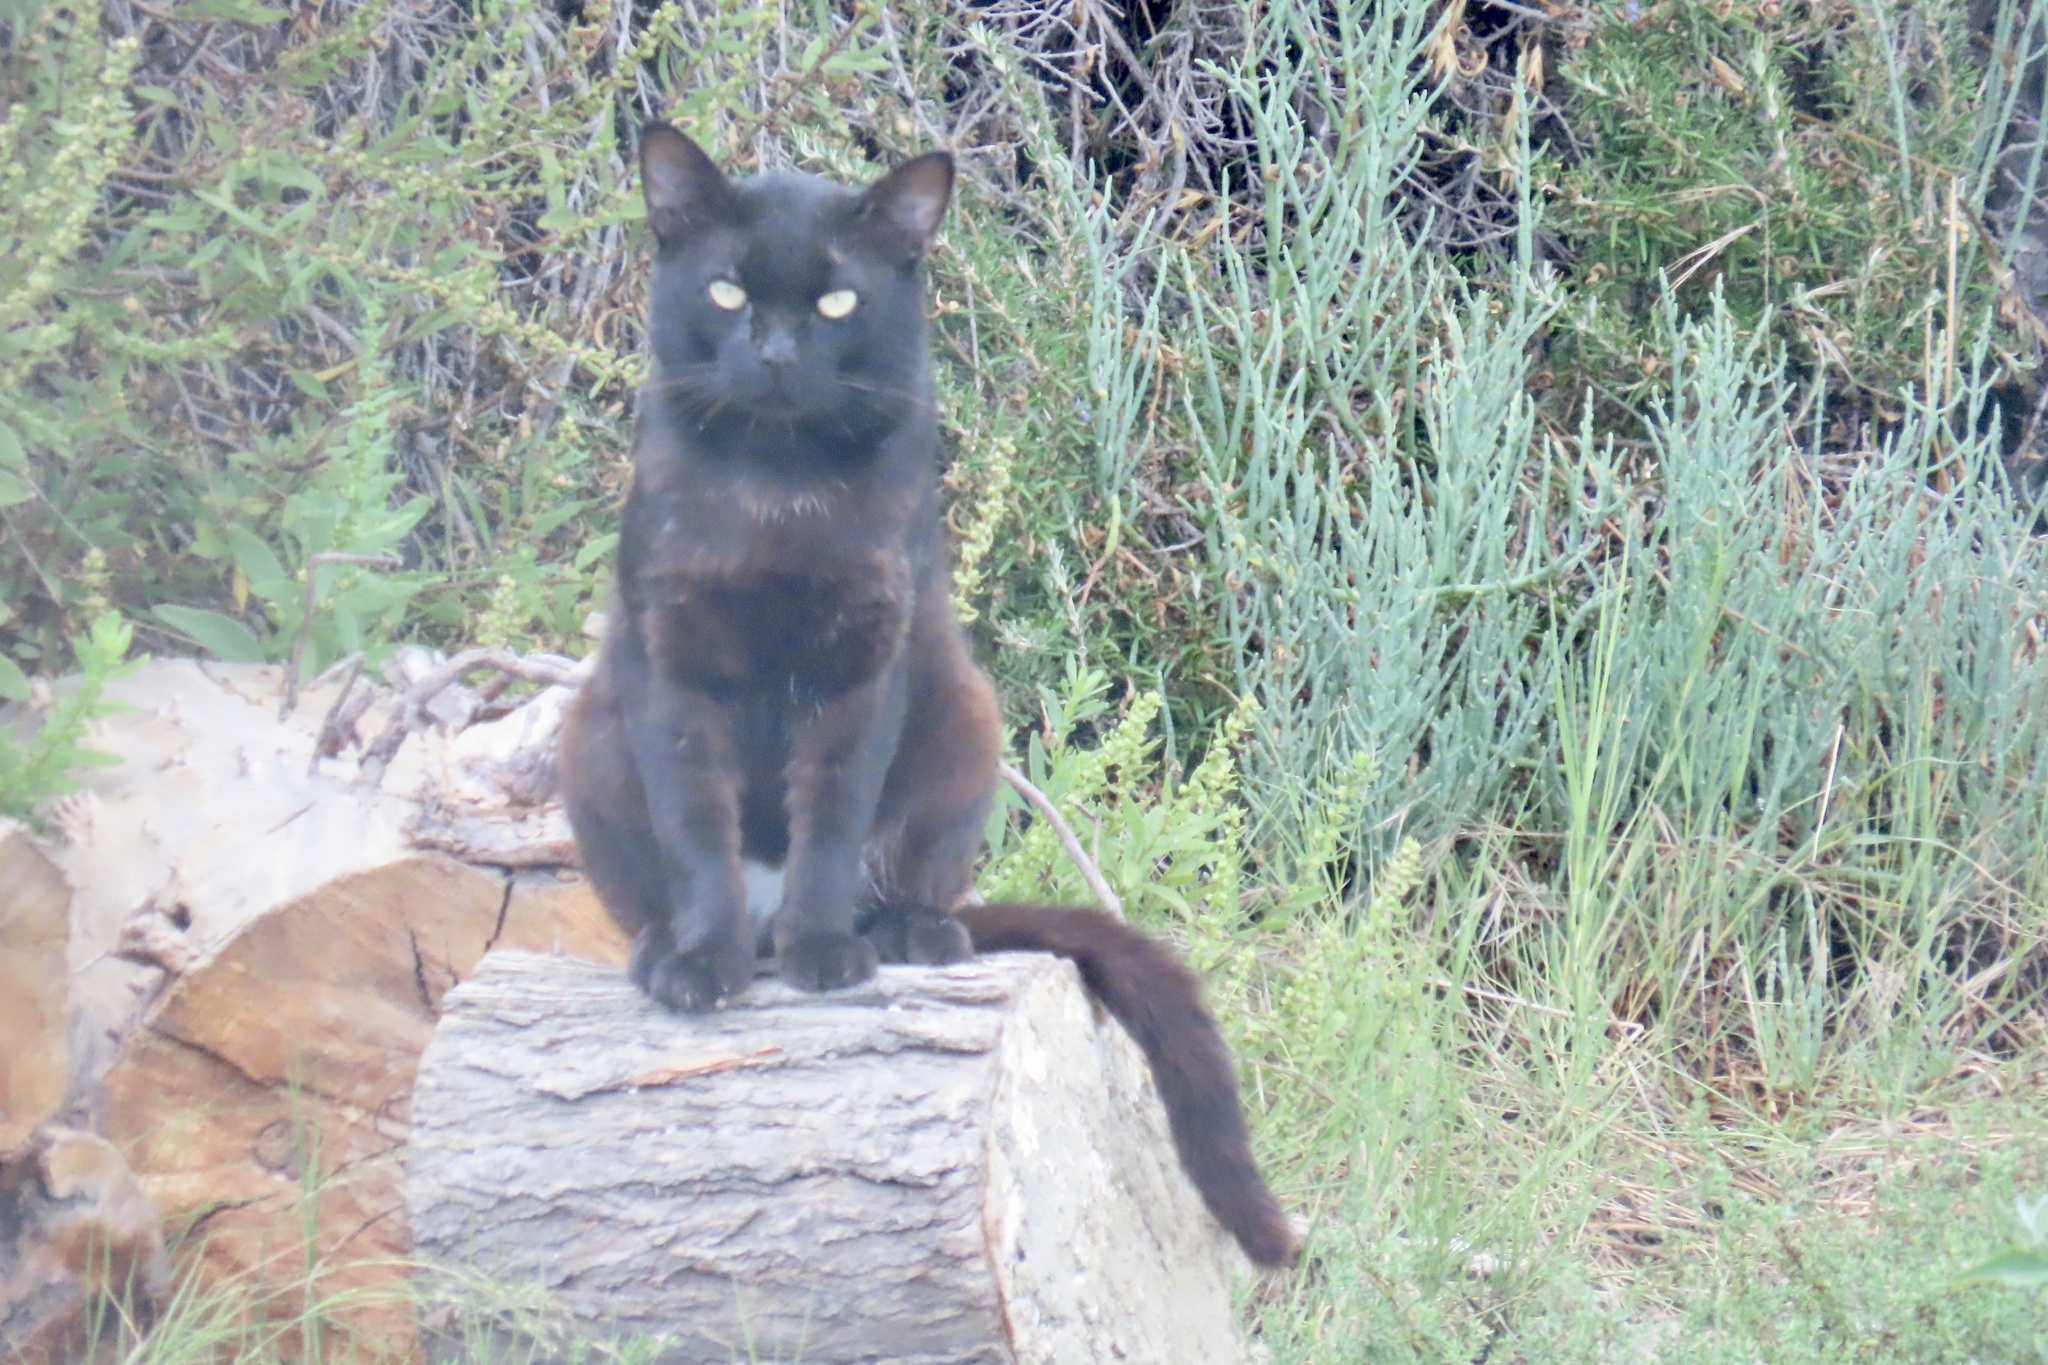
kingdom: Animalia
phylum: Chordata
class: Mammalia
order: Carnivora
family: Felidae
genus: Felis
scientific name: Felis catus
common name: Domestic cat
